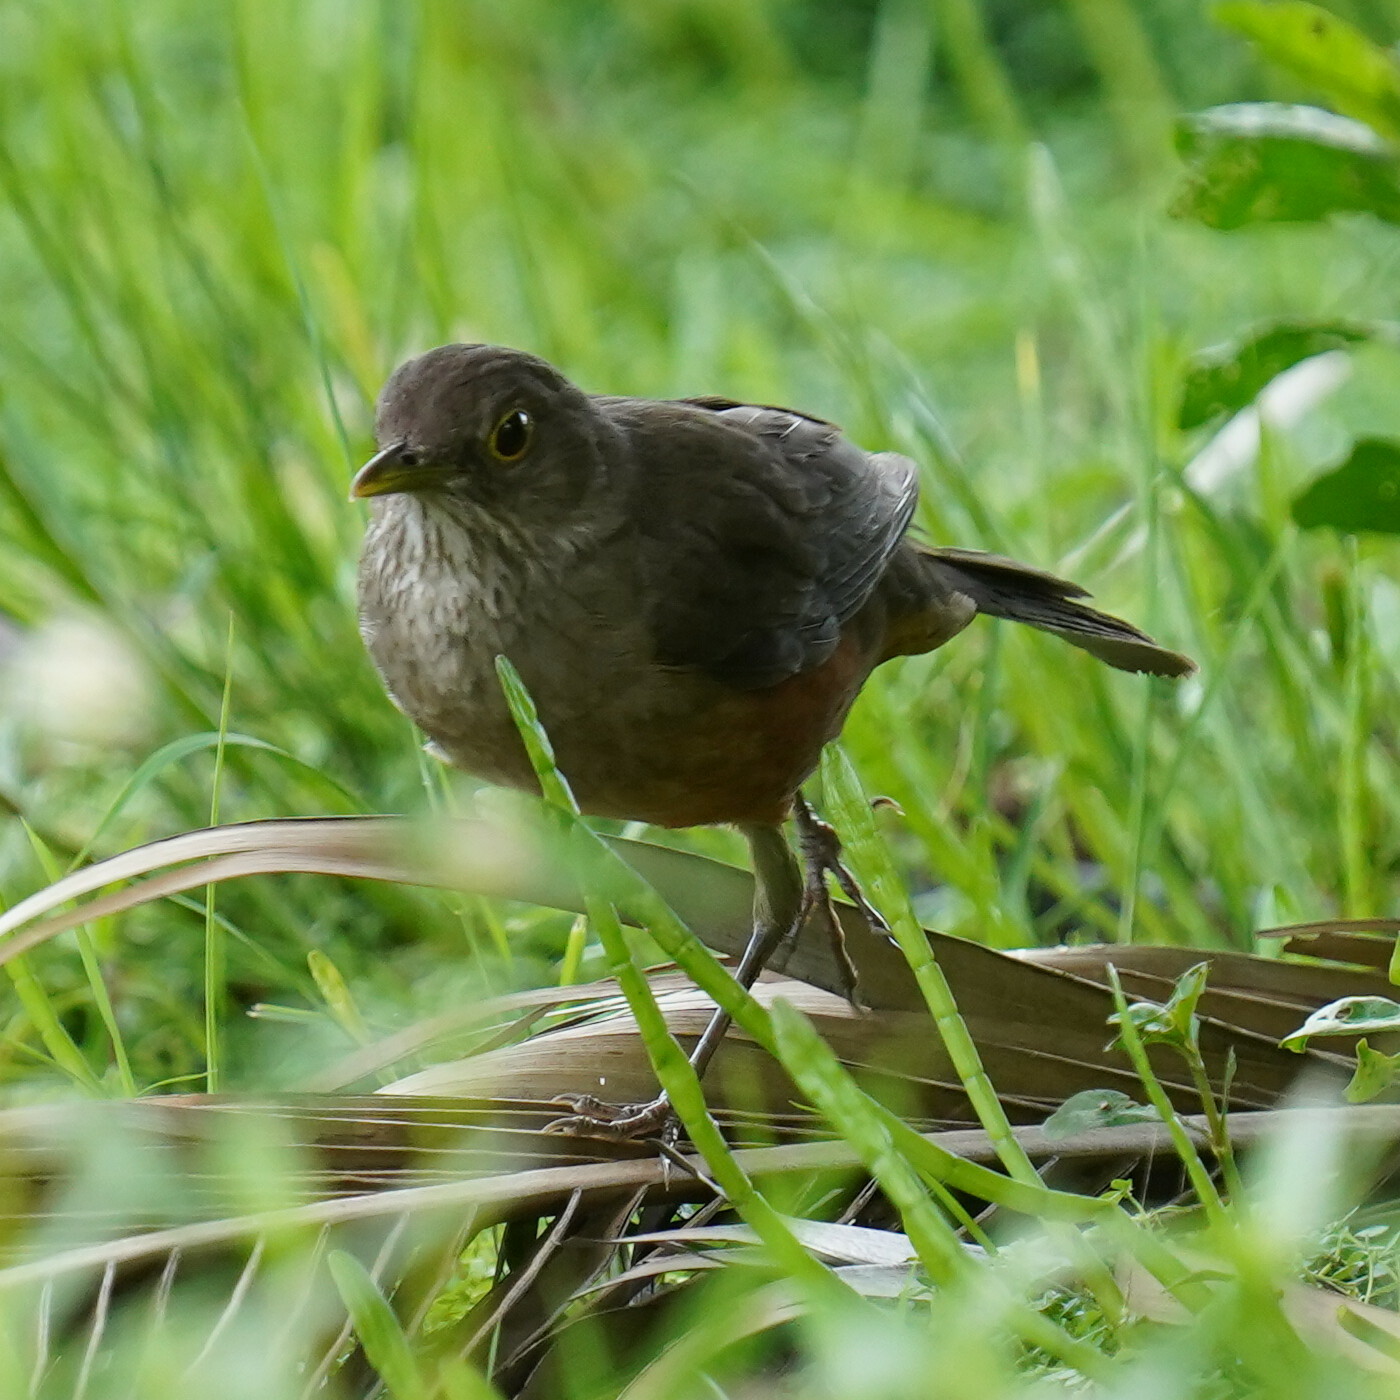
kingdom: Animalia
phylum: Chordata
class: Aves
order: Passeriformes
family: Turdidae
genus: Turdus
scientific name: Turdus rufiventris
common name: Rufous-bellied thrush
